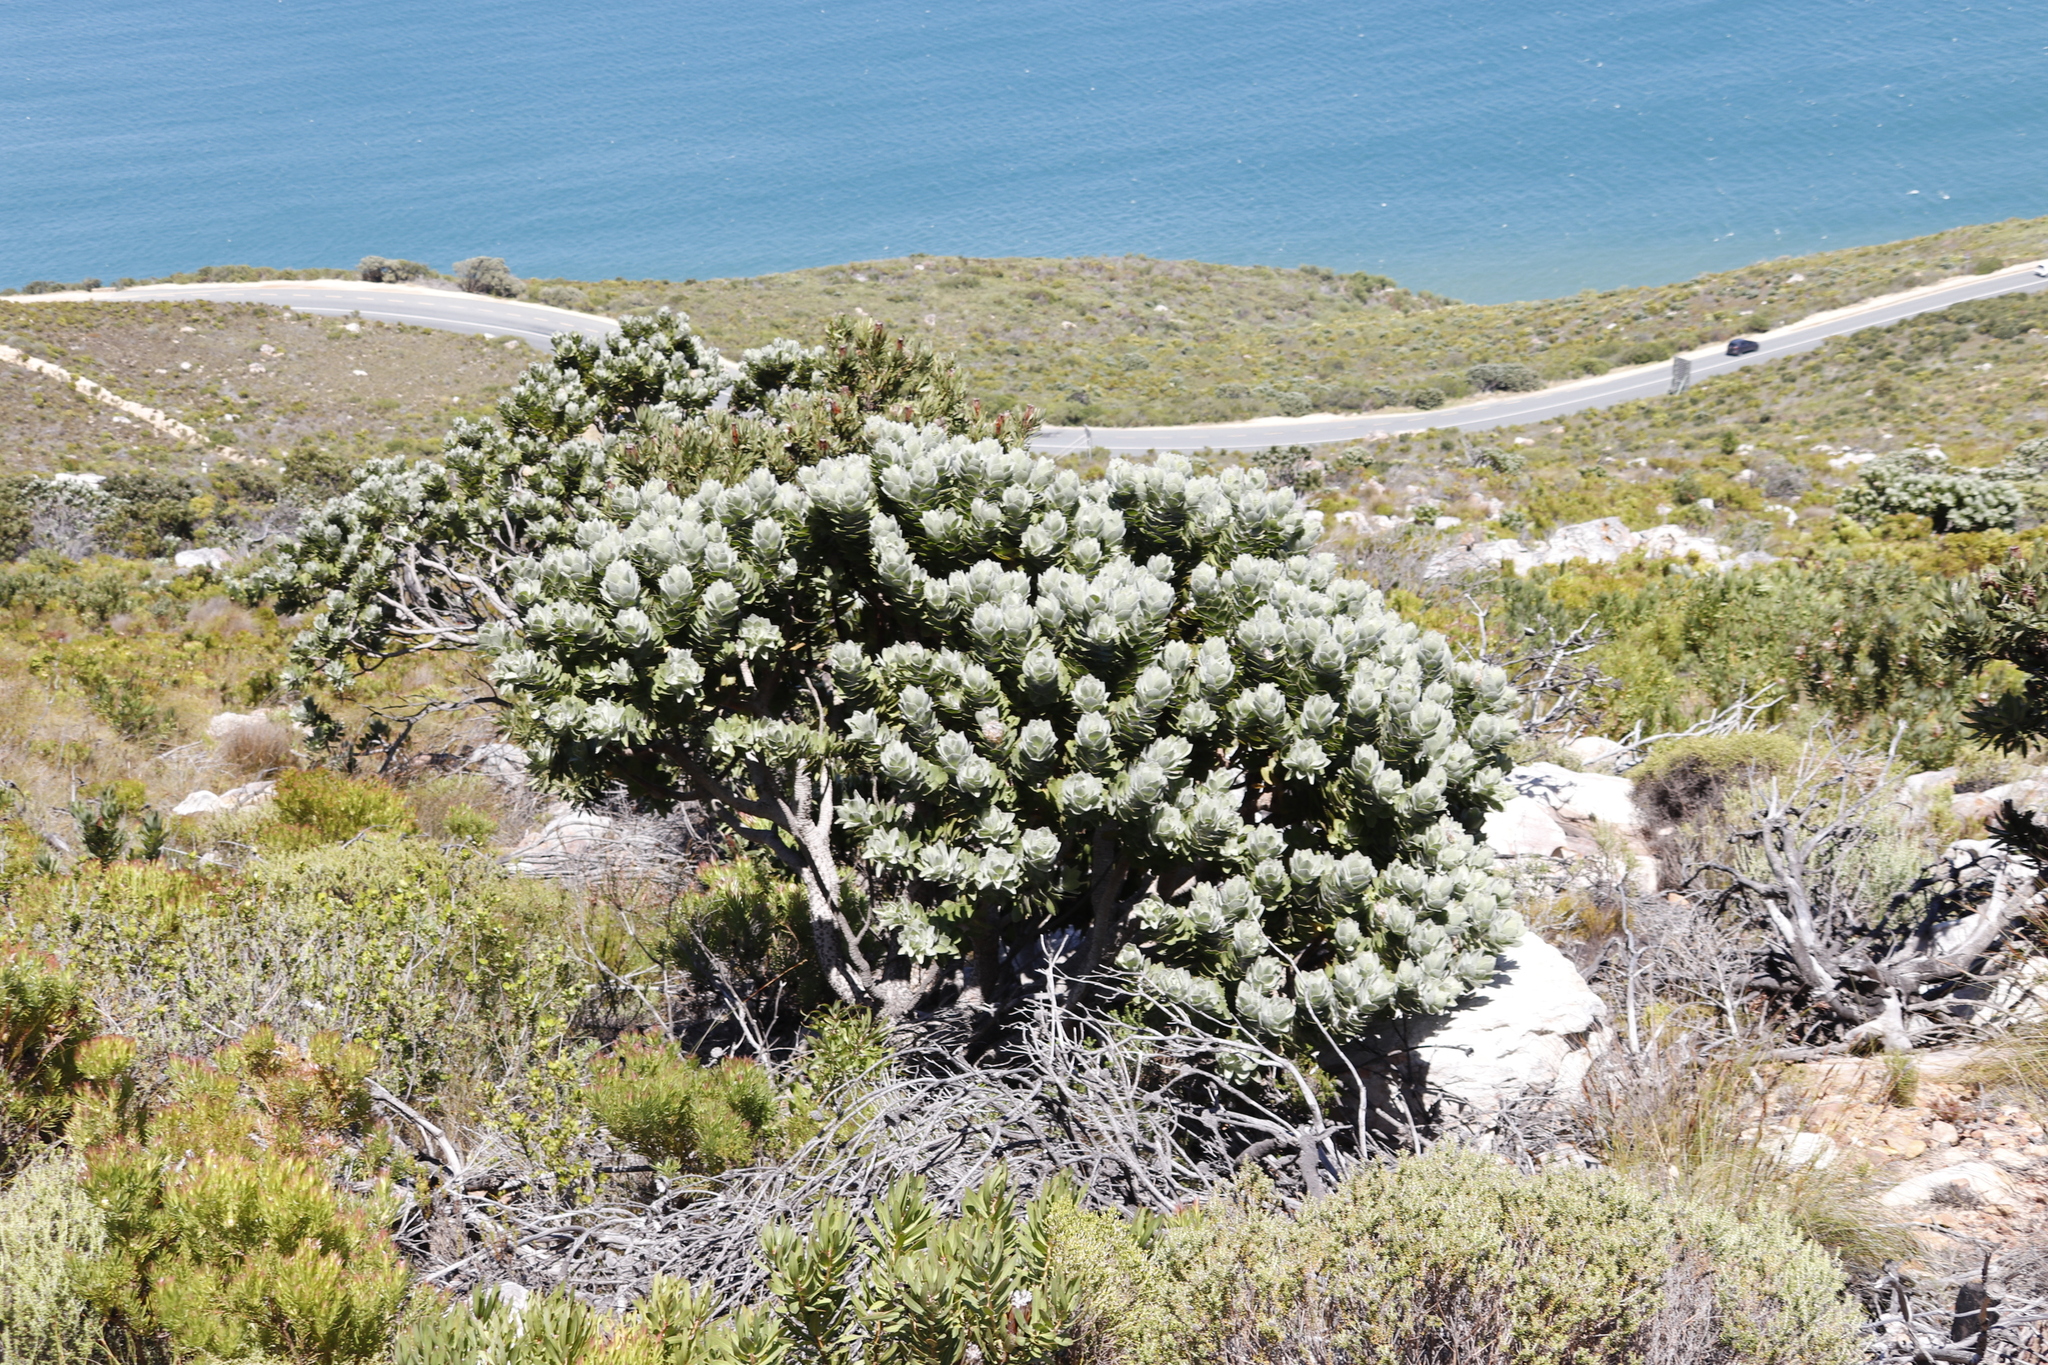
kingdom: Plantae
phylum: Tracheophyta
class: Magnoliopsida
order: Proteales
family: Proteaceae
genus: Leucospermum
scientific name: Leucospermum conocarpodendron
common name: Tree pincushion
